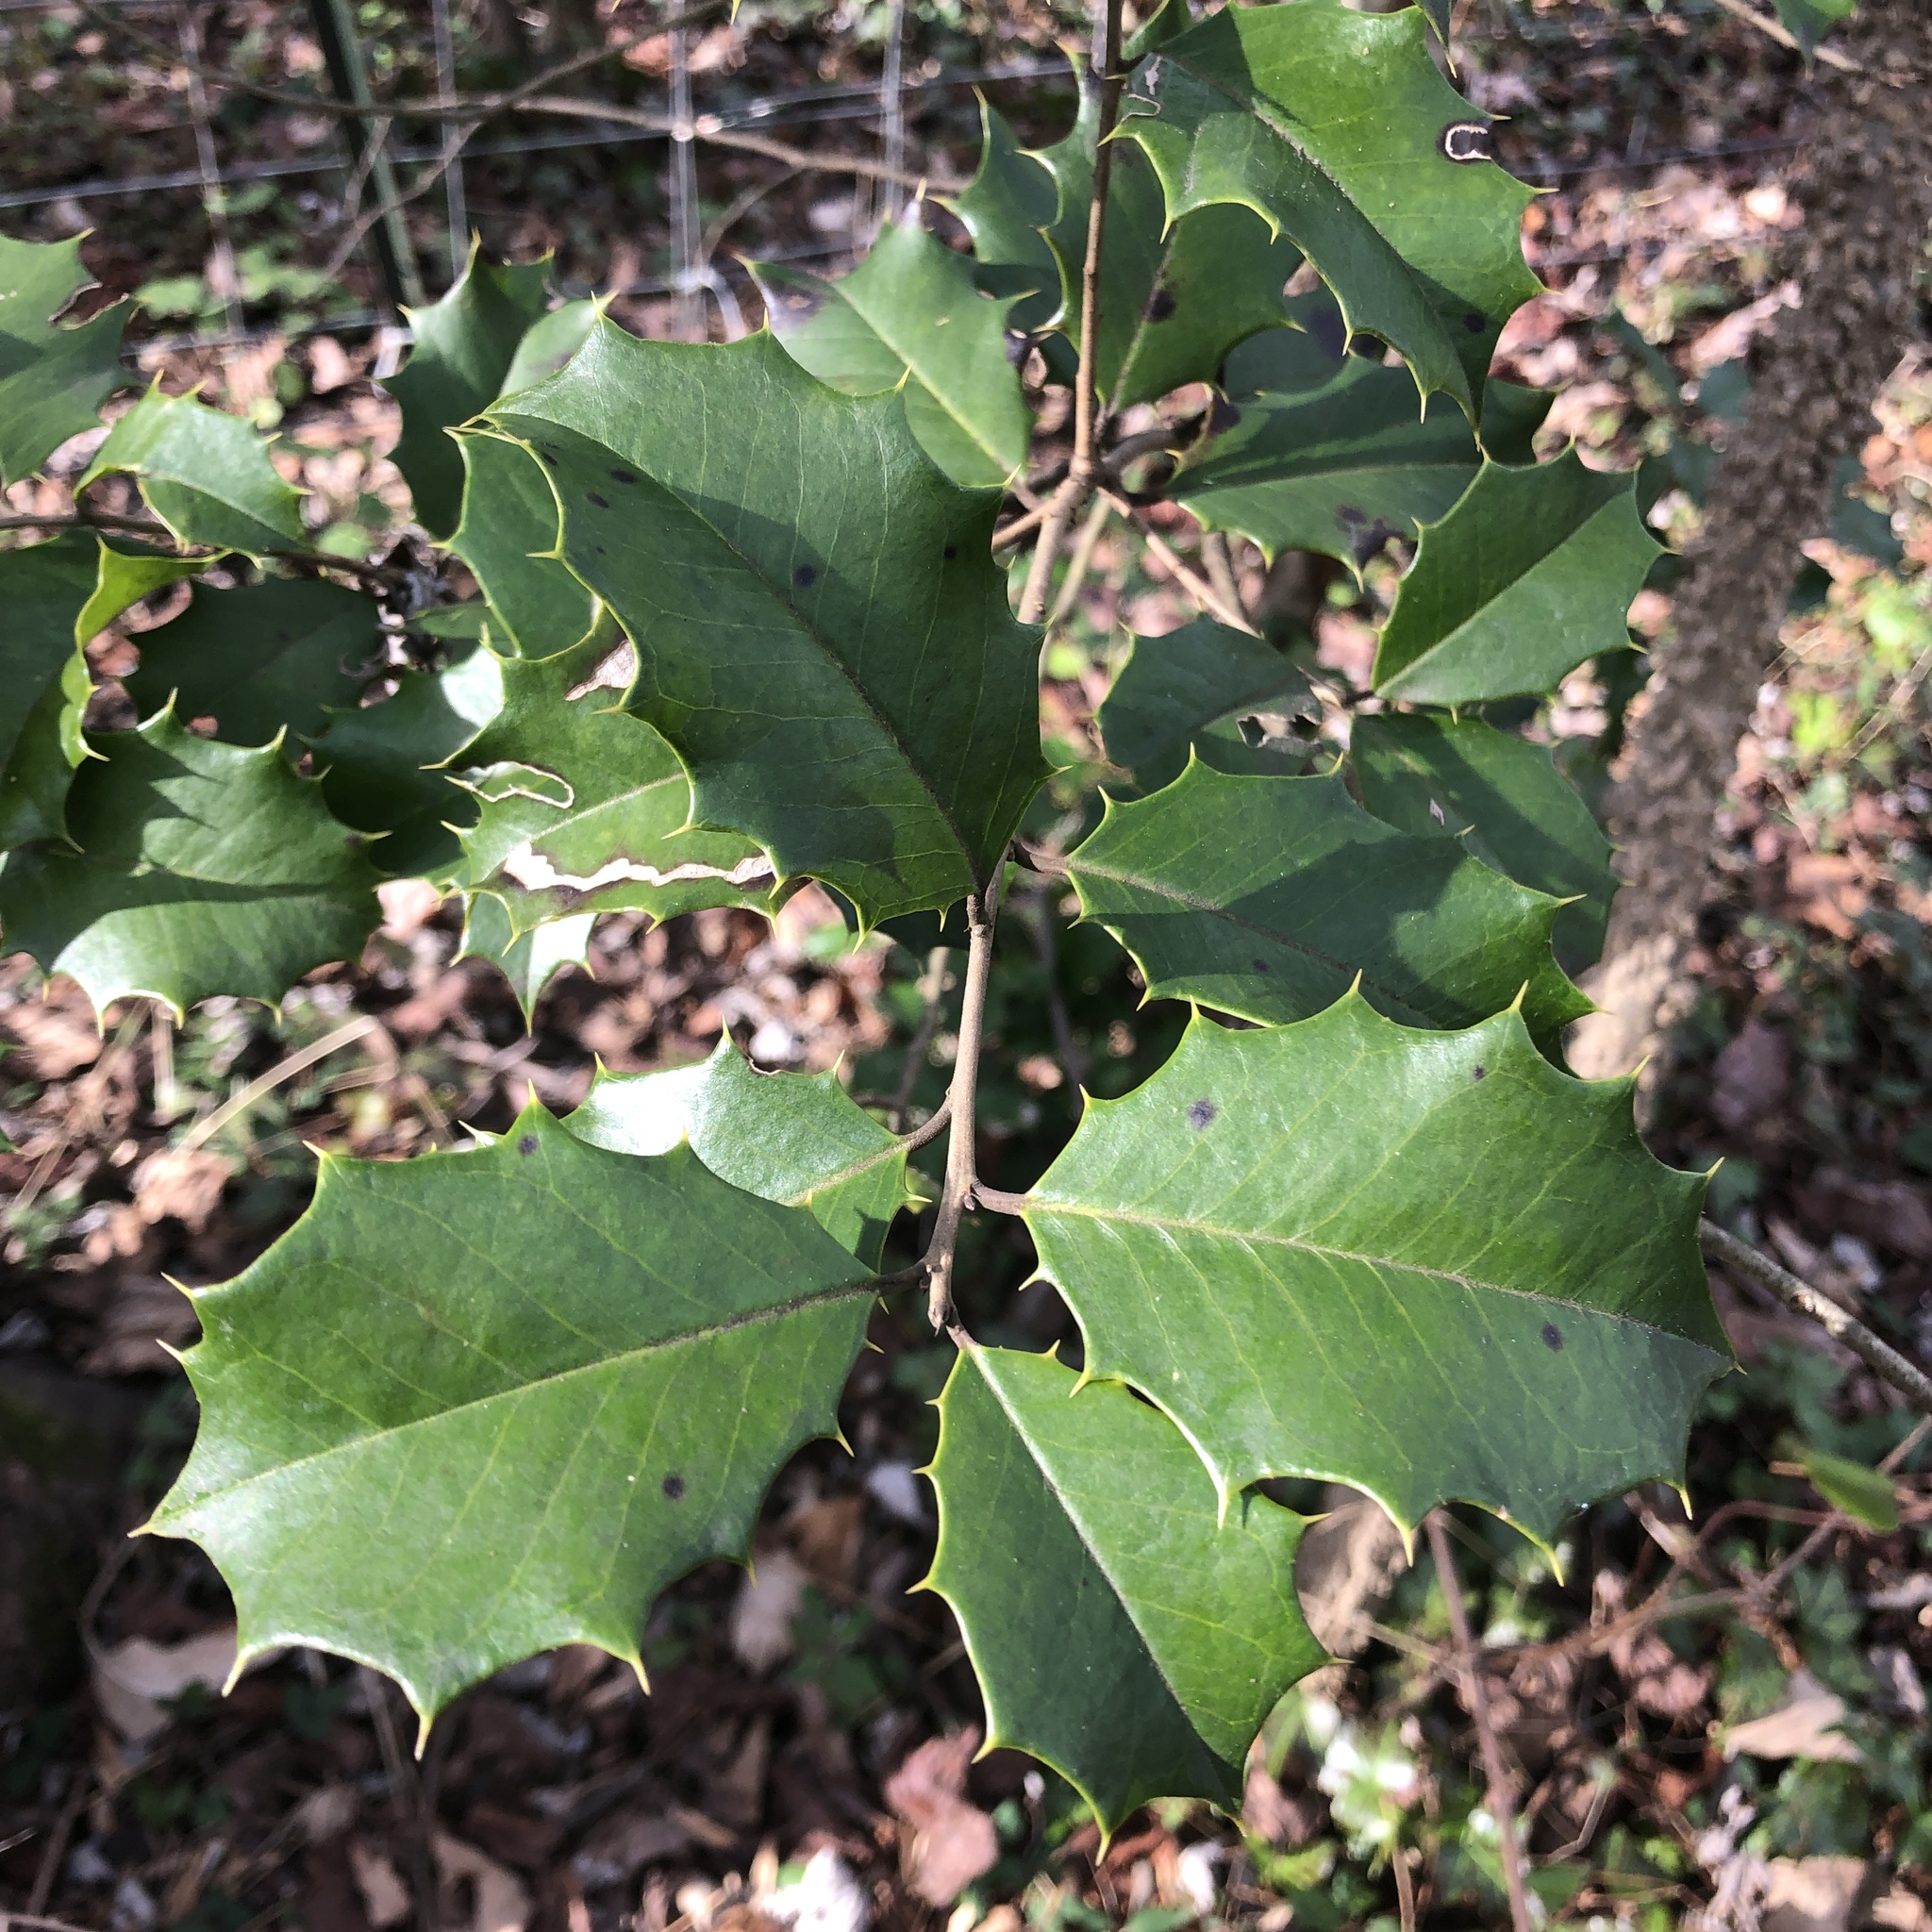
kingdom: Plantae
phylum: Tracheophyta
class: Magnoliopsida
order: Aquifoliales
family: Aquifoliaceae
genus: Ilex
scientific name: Ilex opaca
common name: American holly
